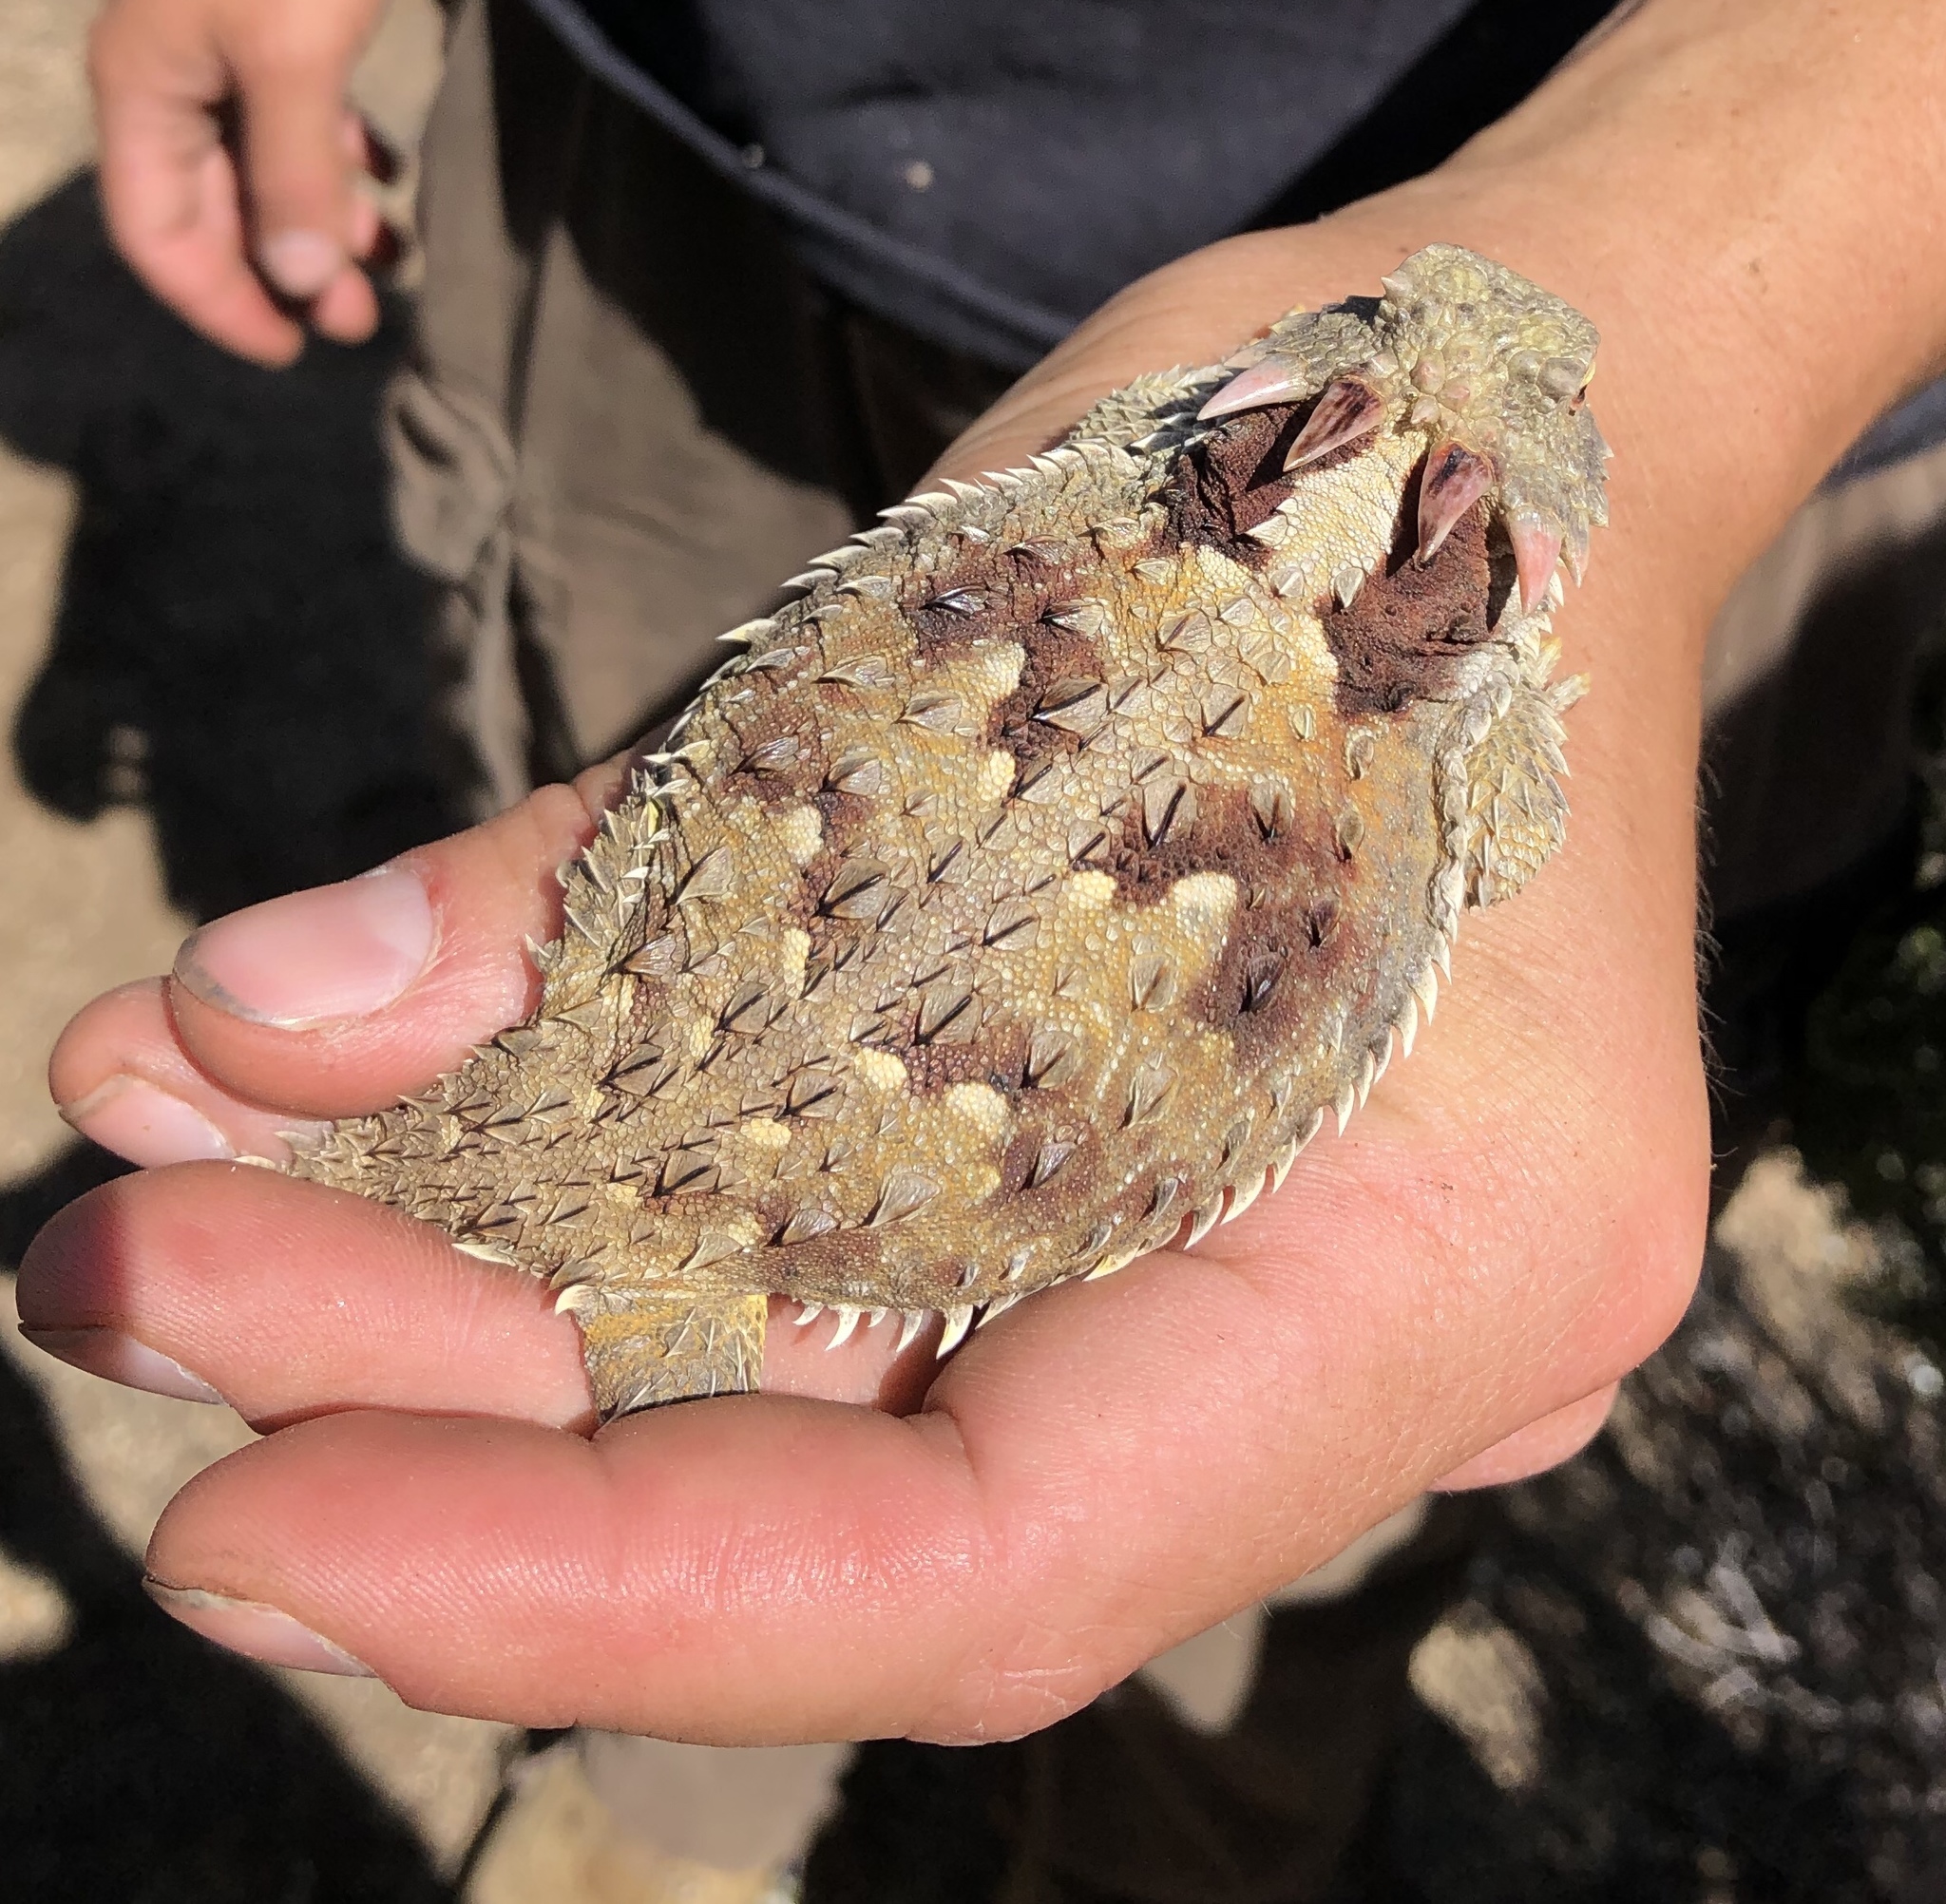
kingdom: Animalia
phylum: Chordata
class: Squamata
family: Phrynosomatidae
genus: Phrynosoma
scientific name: Phrynosoma blainvillii
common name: San diego horned lizard
